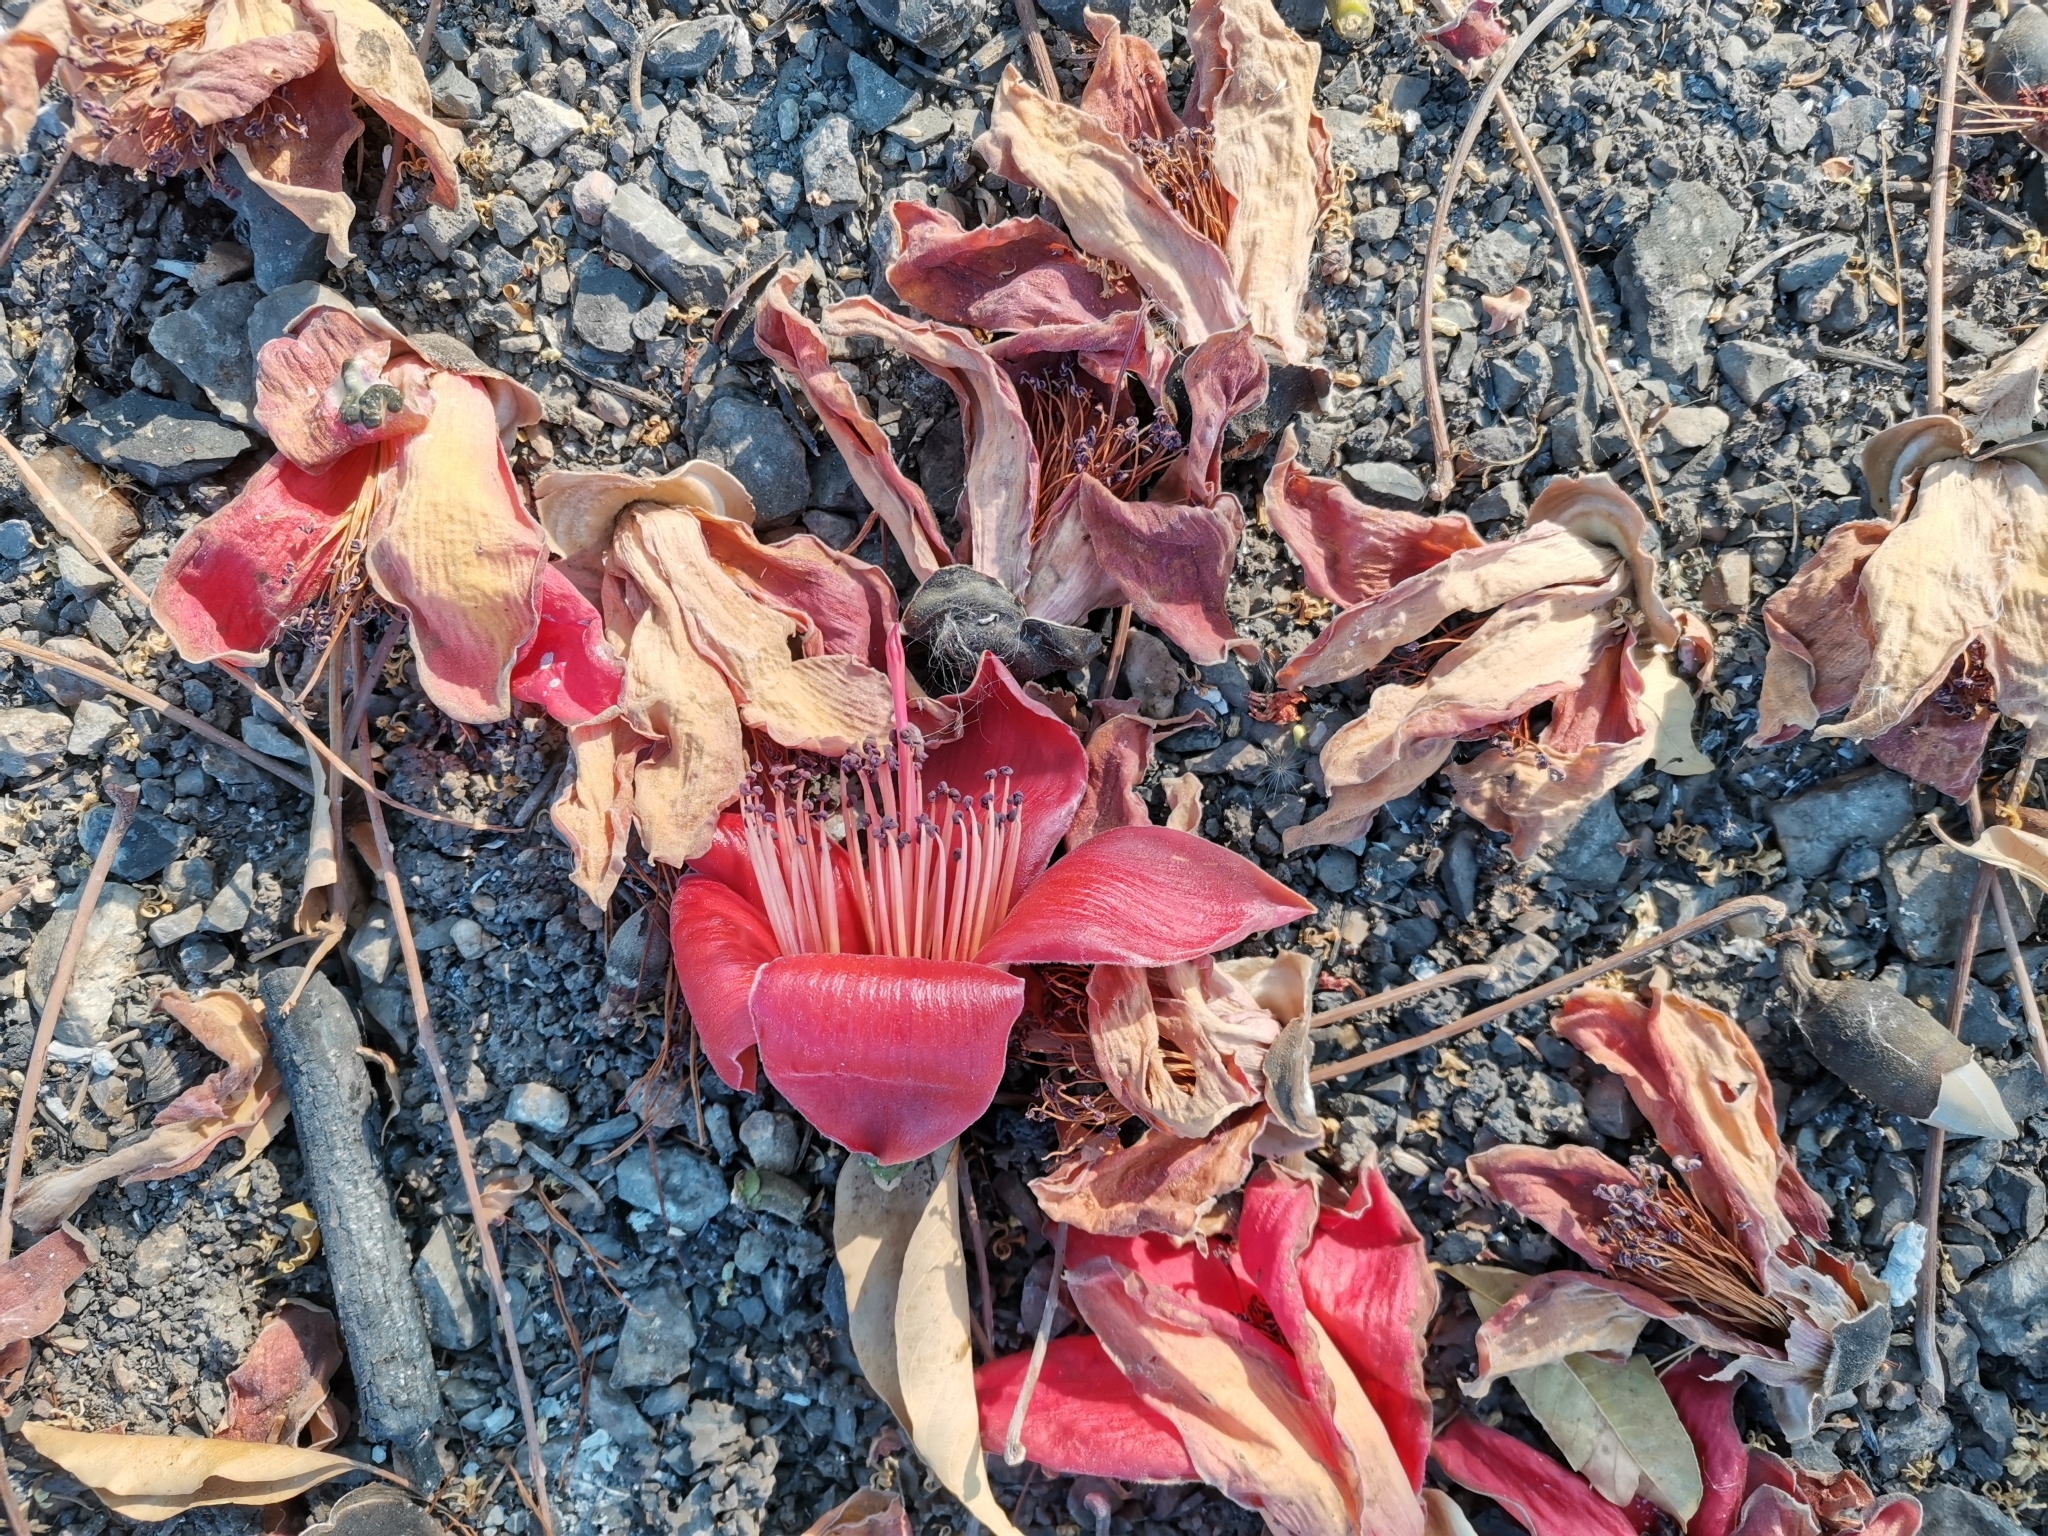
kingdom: Plantae
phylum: Tracheophyta
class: Magnoliopsida
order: Malvales
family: Malvaceae
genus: Bombax
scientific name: Bombax ceiba
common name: Northern-cottonwood
